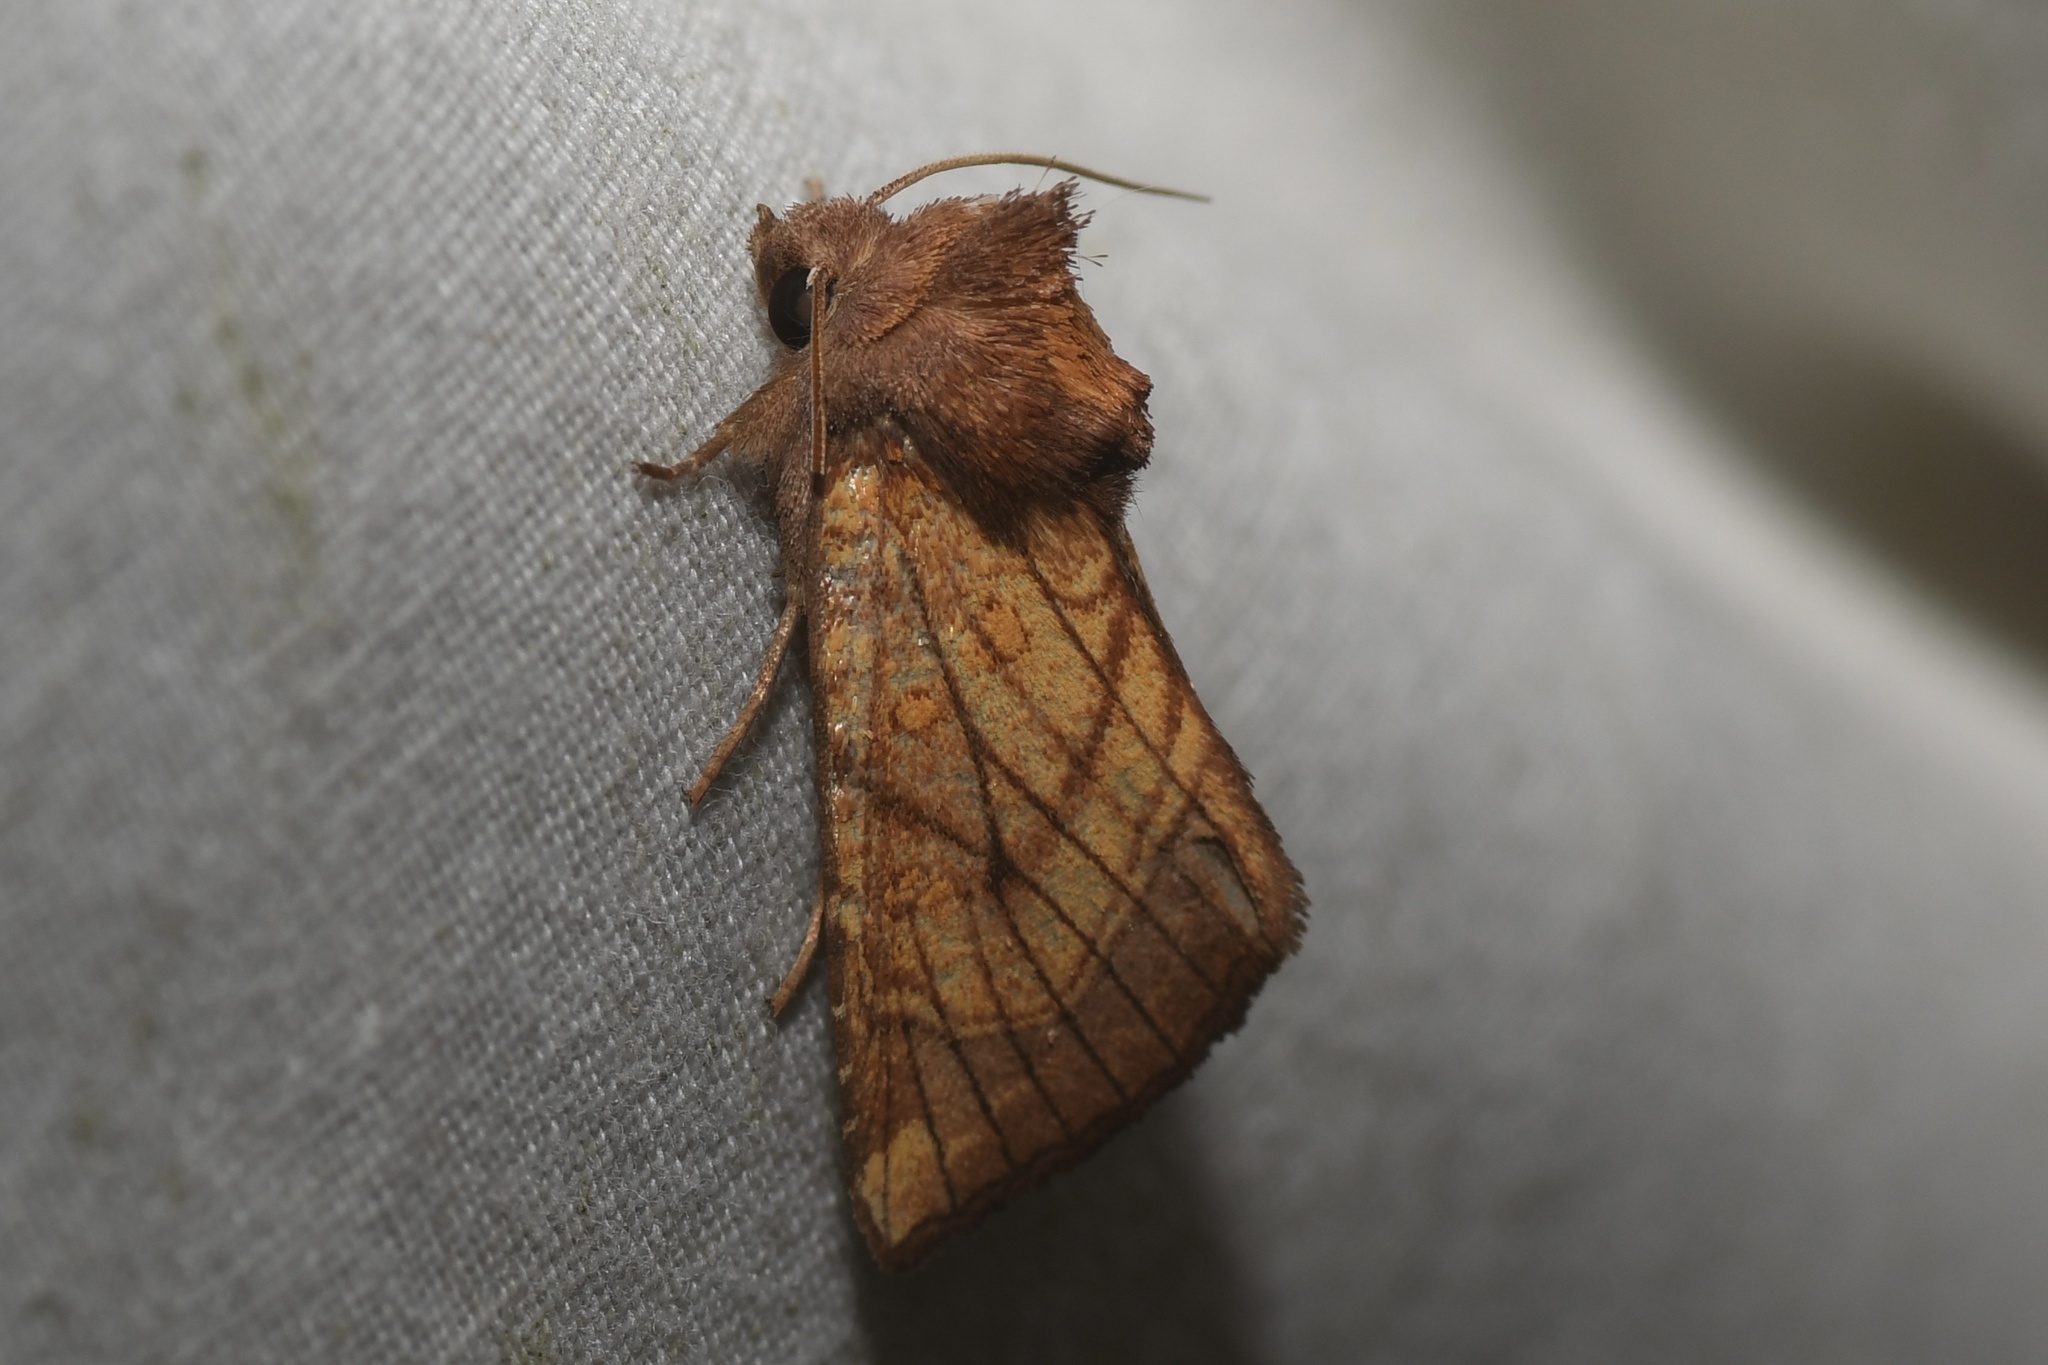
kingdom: Animalia
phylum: Arthropoda
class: Insecta
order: Lepidoptera
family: Noctuidae
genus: Papaipema
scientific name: Papaipema inquaesita
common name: Sensitive fern borer moth
